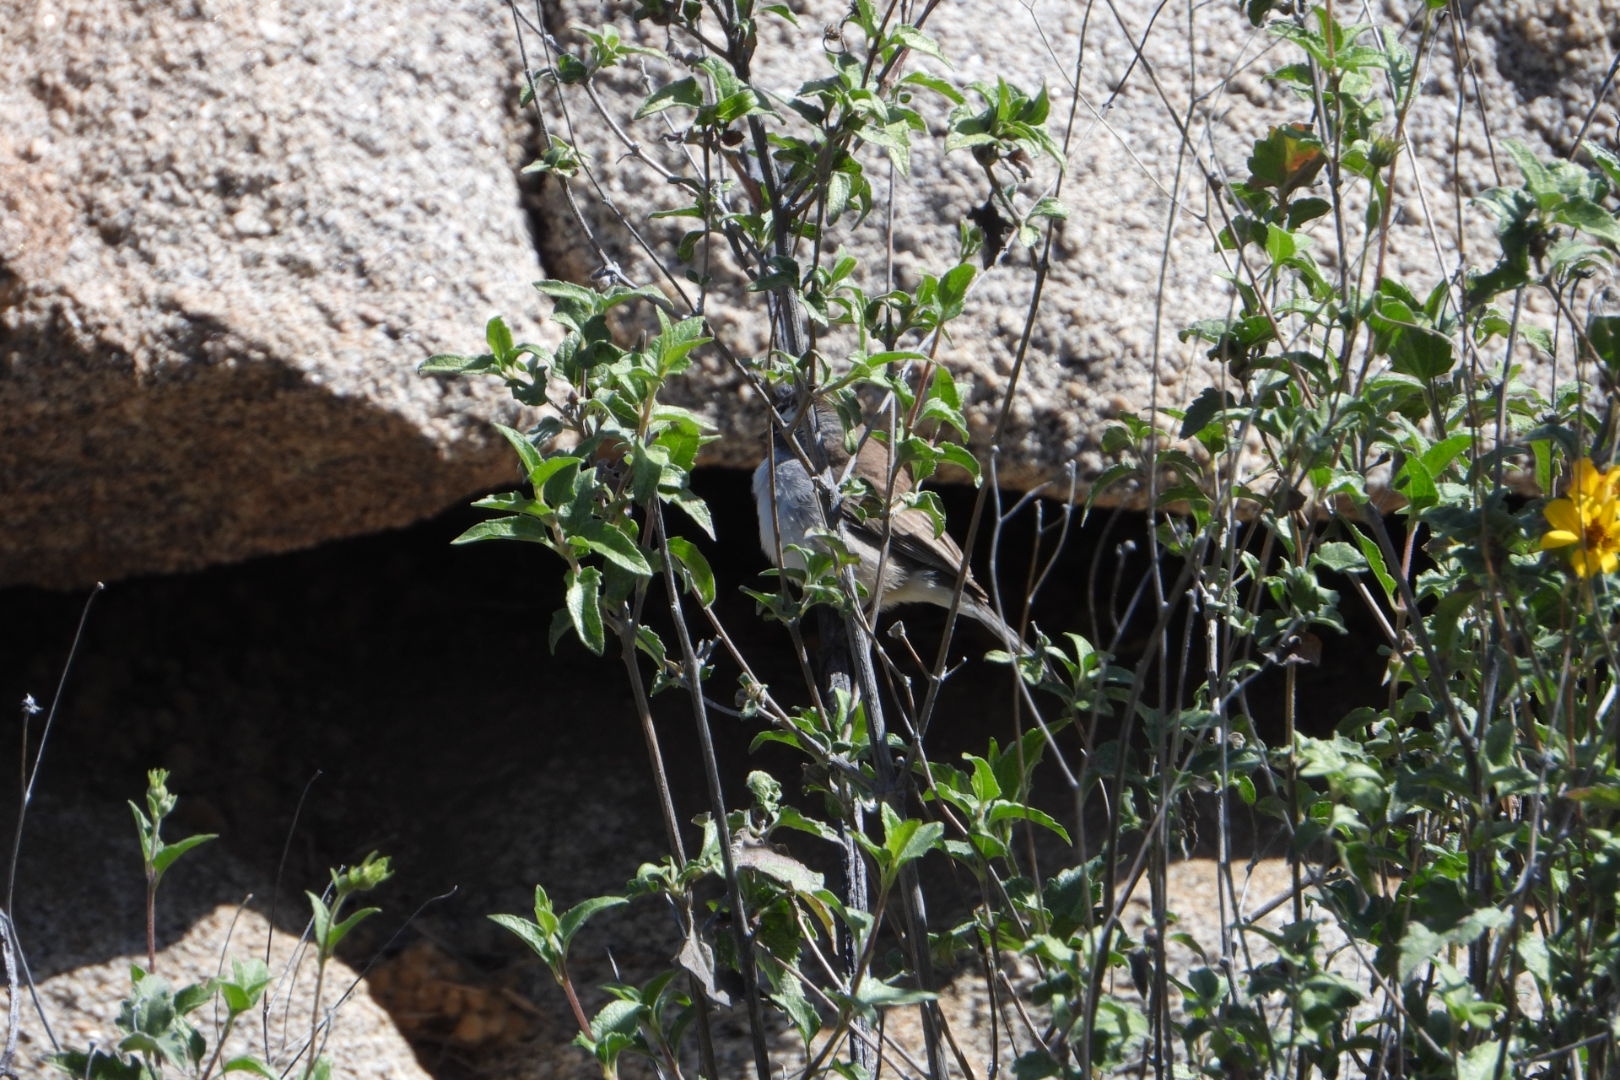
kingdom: Animalia
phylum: Chordata
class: Aves
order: Passeriformes
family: Passerellidae
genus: Amphispiza
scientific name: Amphispiza bilineata
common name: Black-throated sparrow
